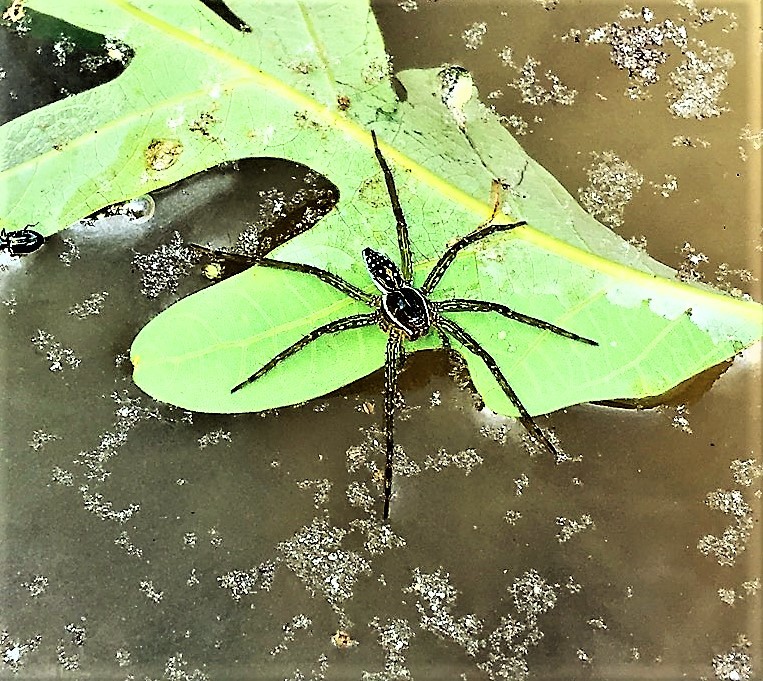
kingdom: Animalia
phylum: Arthropoda
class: Arachnida
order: Araneae
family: Pisauridae
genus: Dolomedes
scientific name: Dolomedes triton
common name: Six-spotted fishing spider
